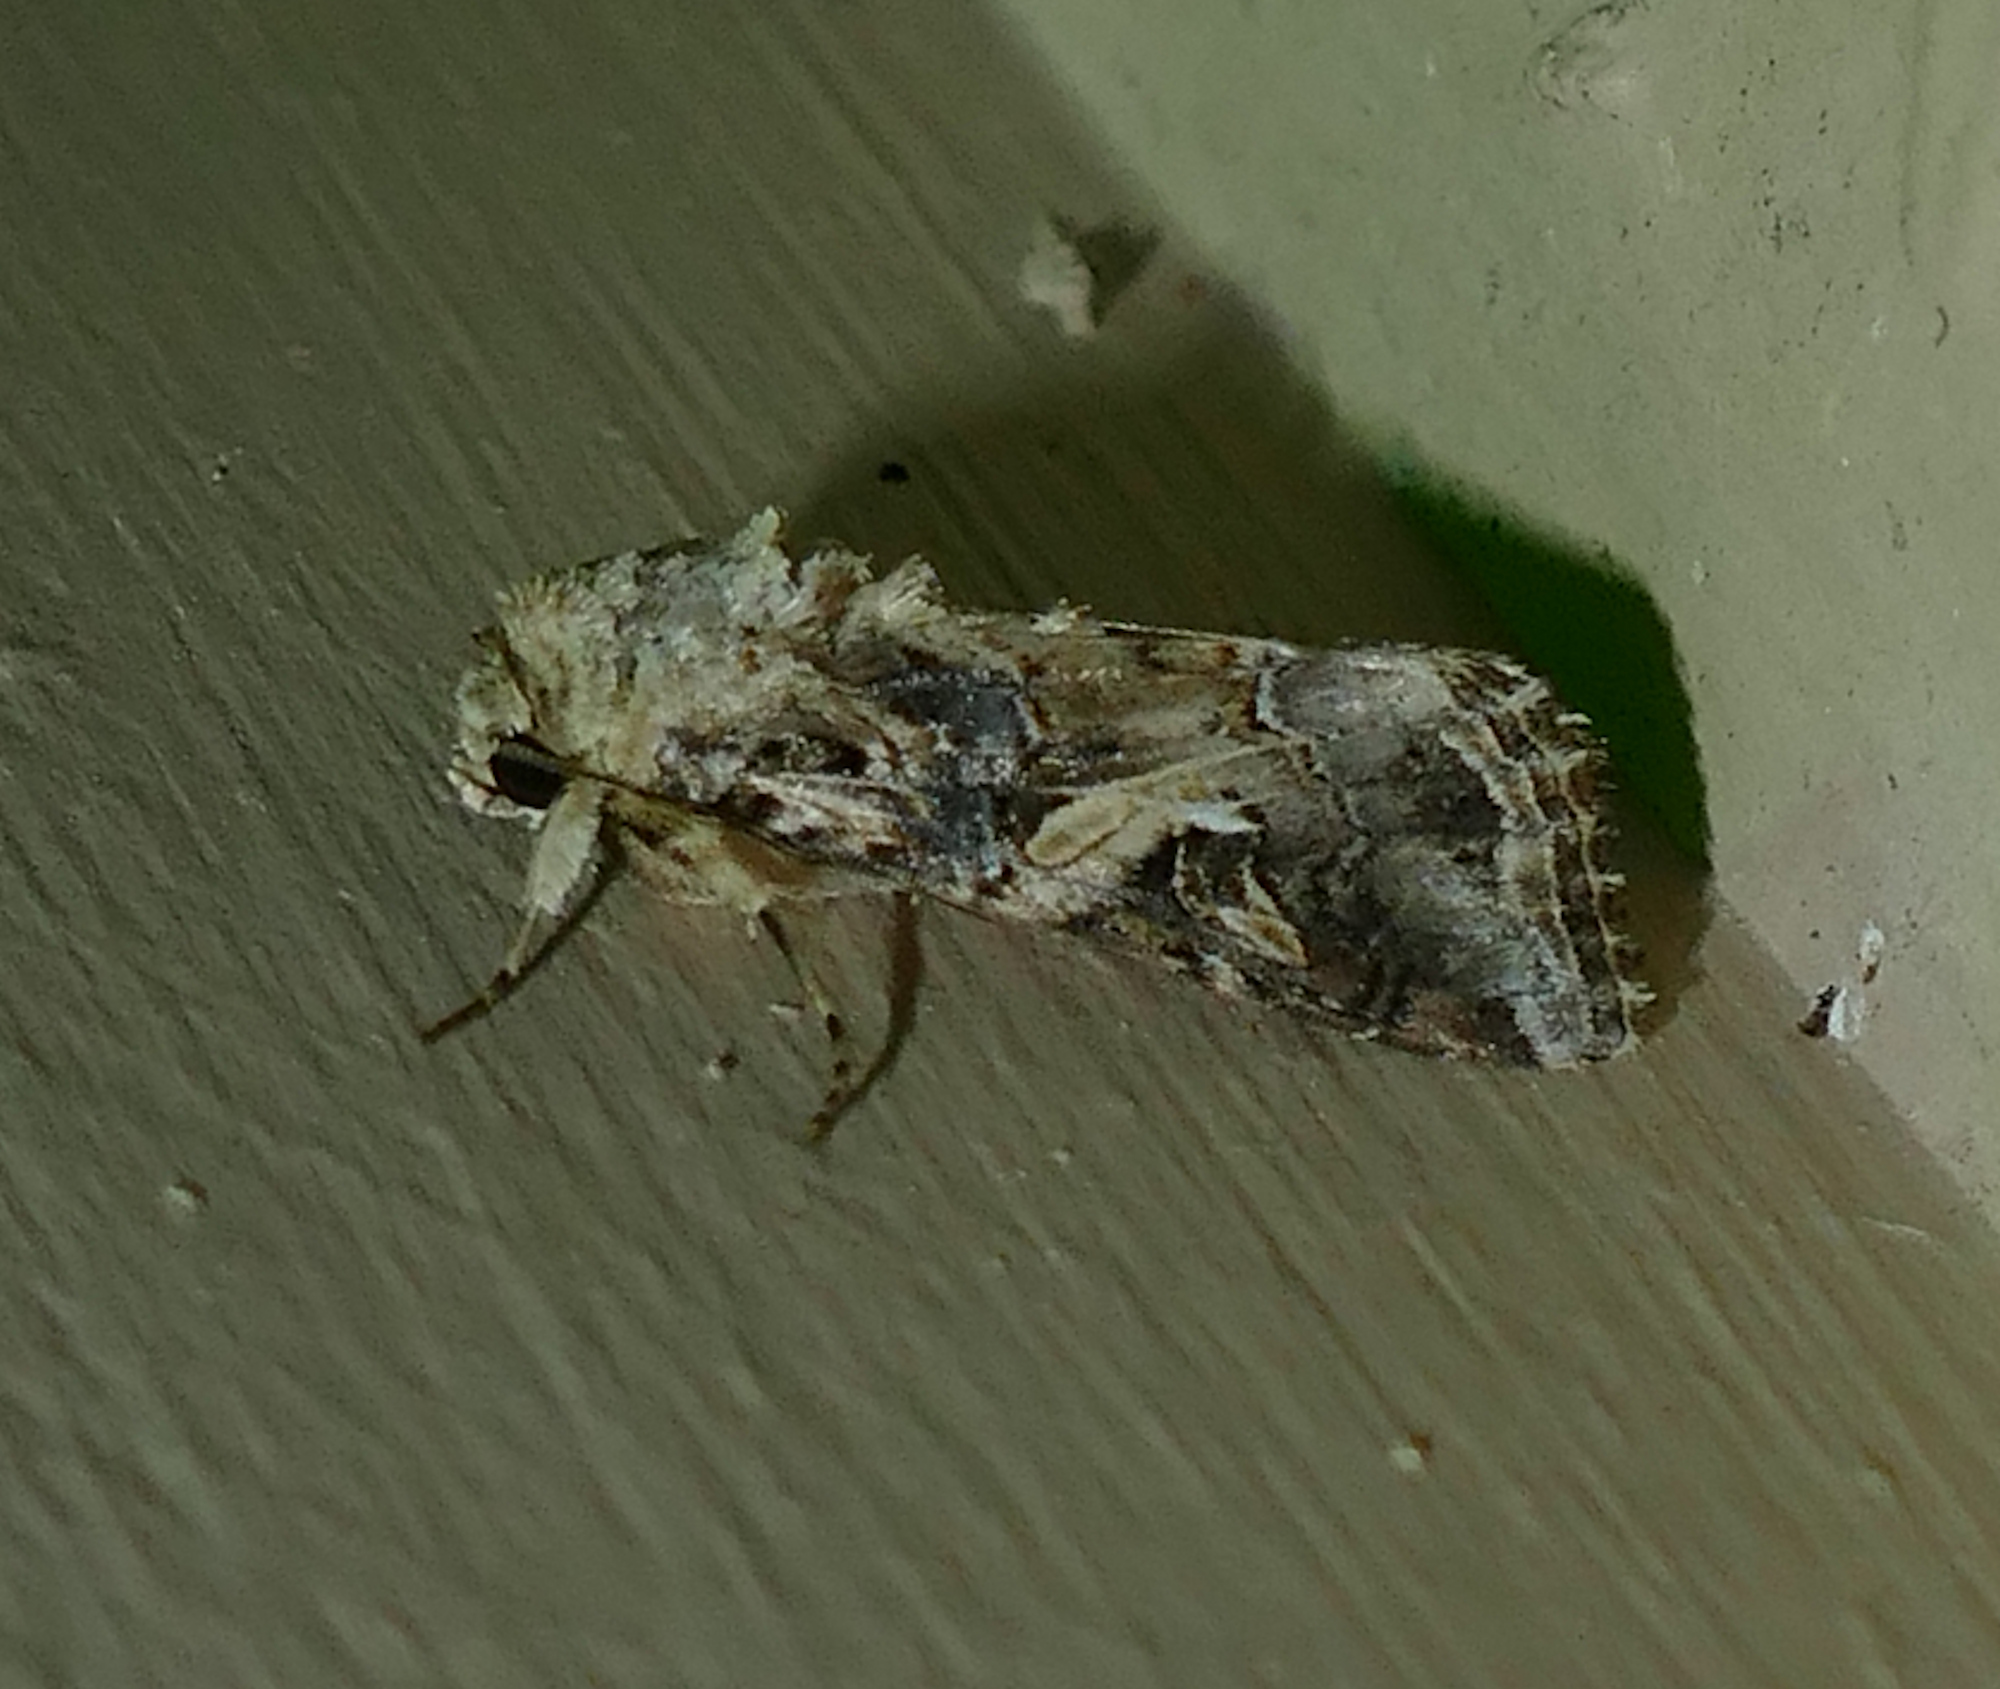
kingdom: Animalia
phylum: Arthropoda
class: Insecta
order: Lepidoptera
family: Noctuidae
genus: Spodoptera
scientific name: Spodoptera ornithogalli
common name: Yellow-striped armyworm
